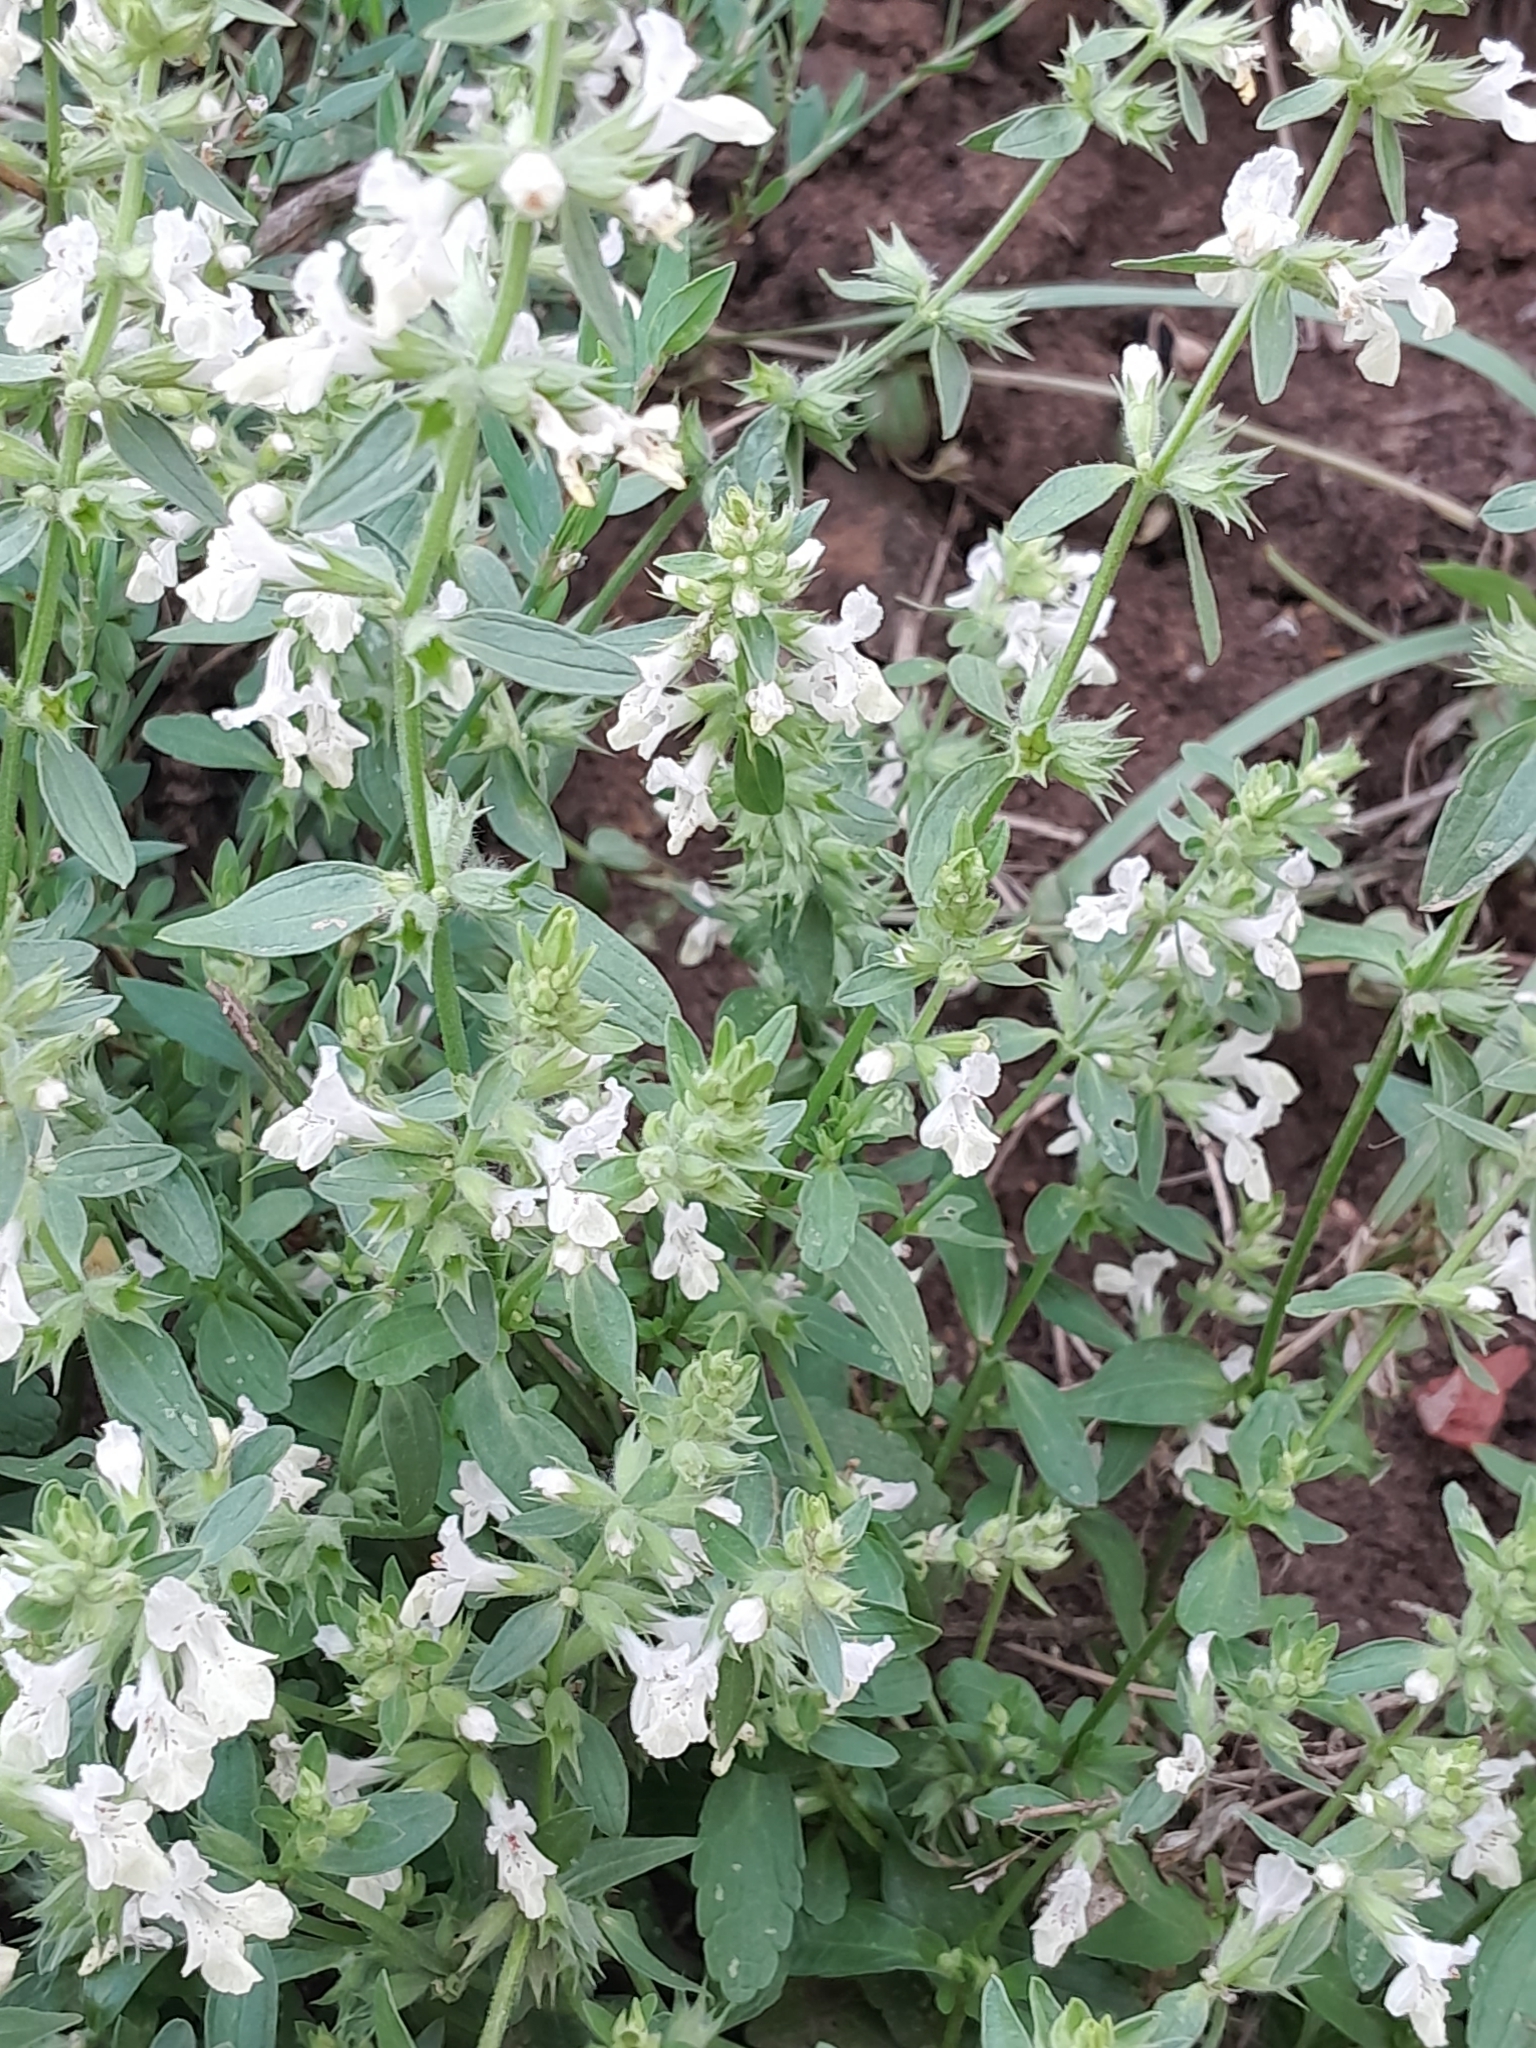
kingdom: Plantae
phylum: Tracheophyta
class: Magnoliopsida
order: Lamiales
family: Lamiaceae
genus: Stachys
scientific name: Stachys annua
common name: Annual yellow-woundwort
